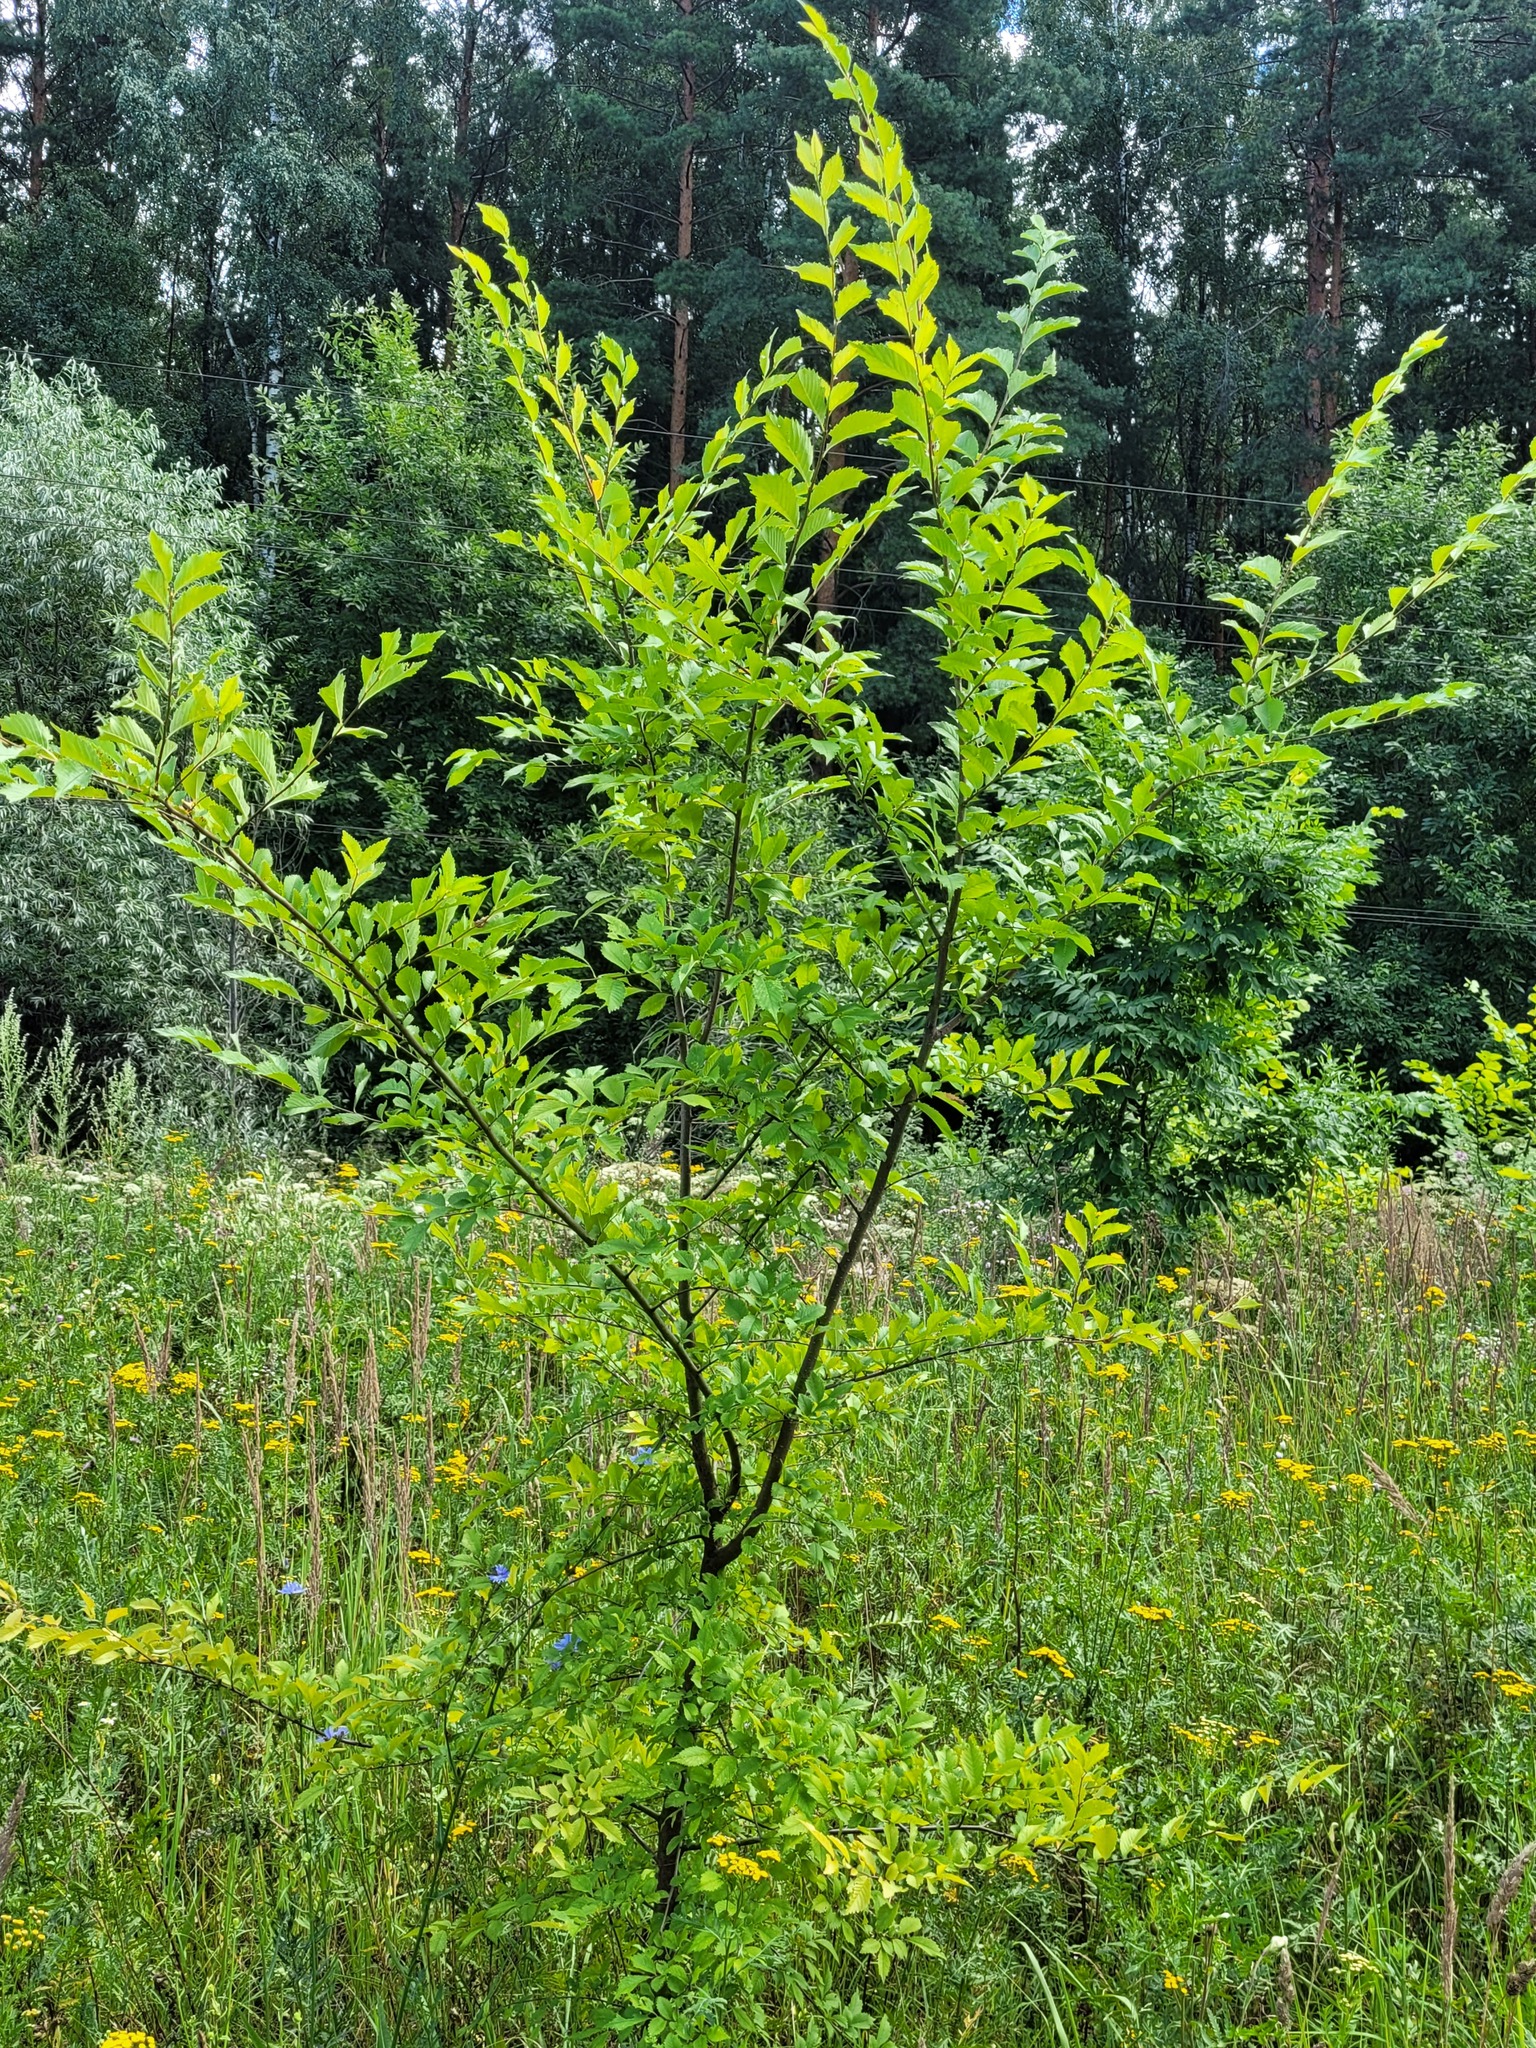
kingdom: Plantae
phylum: Tracheophyta
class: Magnoliopsida
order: Rosales
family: Ulmaceae
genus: Ulmus
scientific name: Ulmus pumila
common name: Siberian elm
